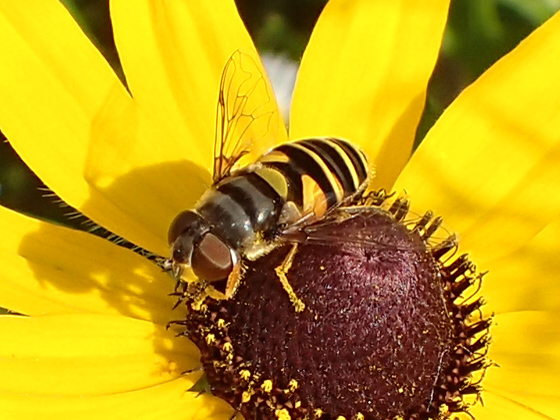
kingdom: Animalia
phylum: Arthropoda
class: Insecta
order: Diptera
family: Syrphidae
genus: Eristalis
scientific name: Eristalis transversa
